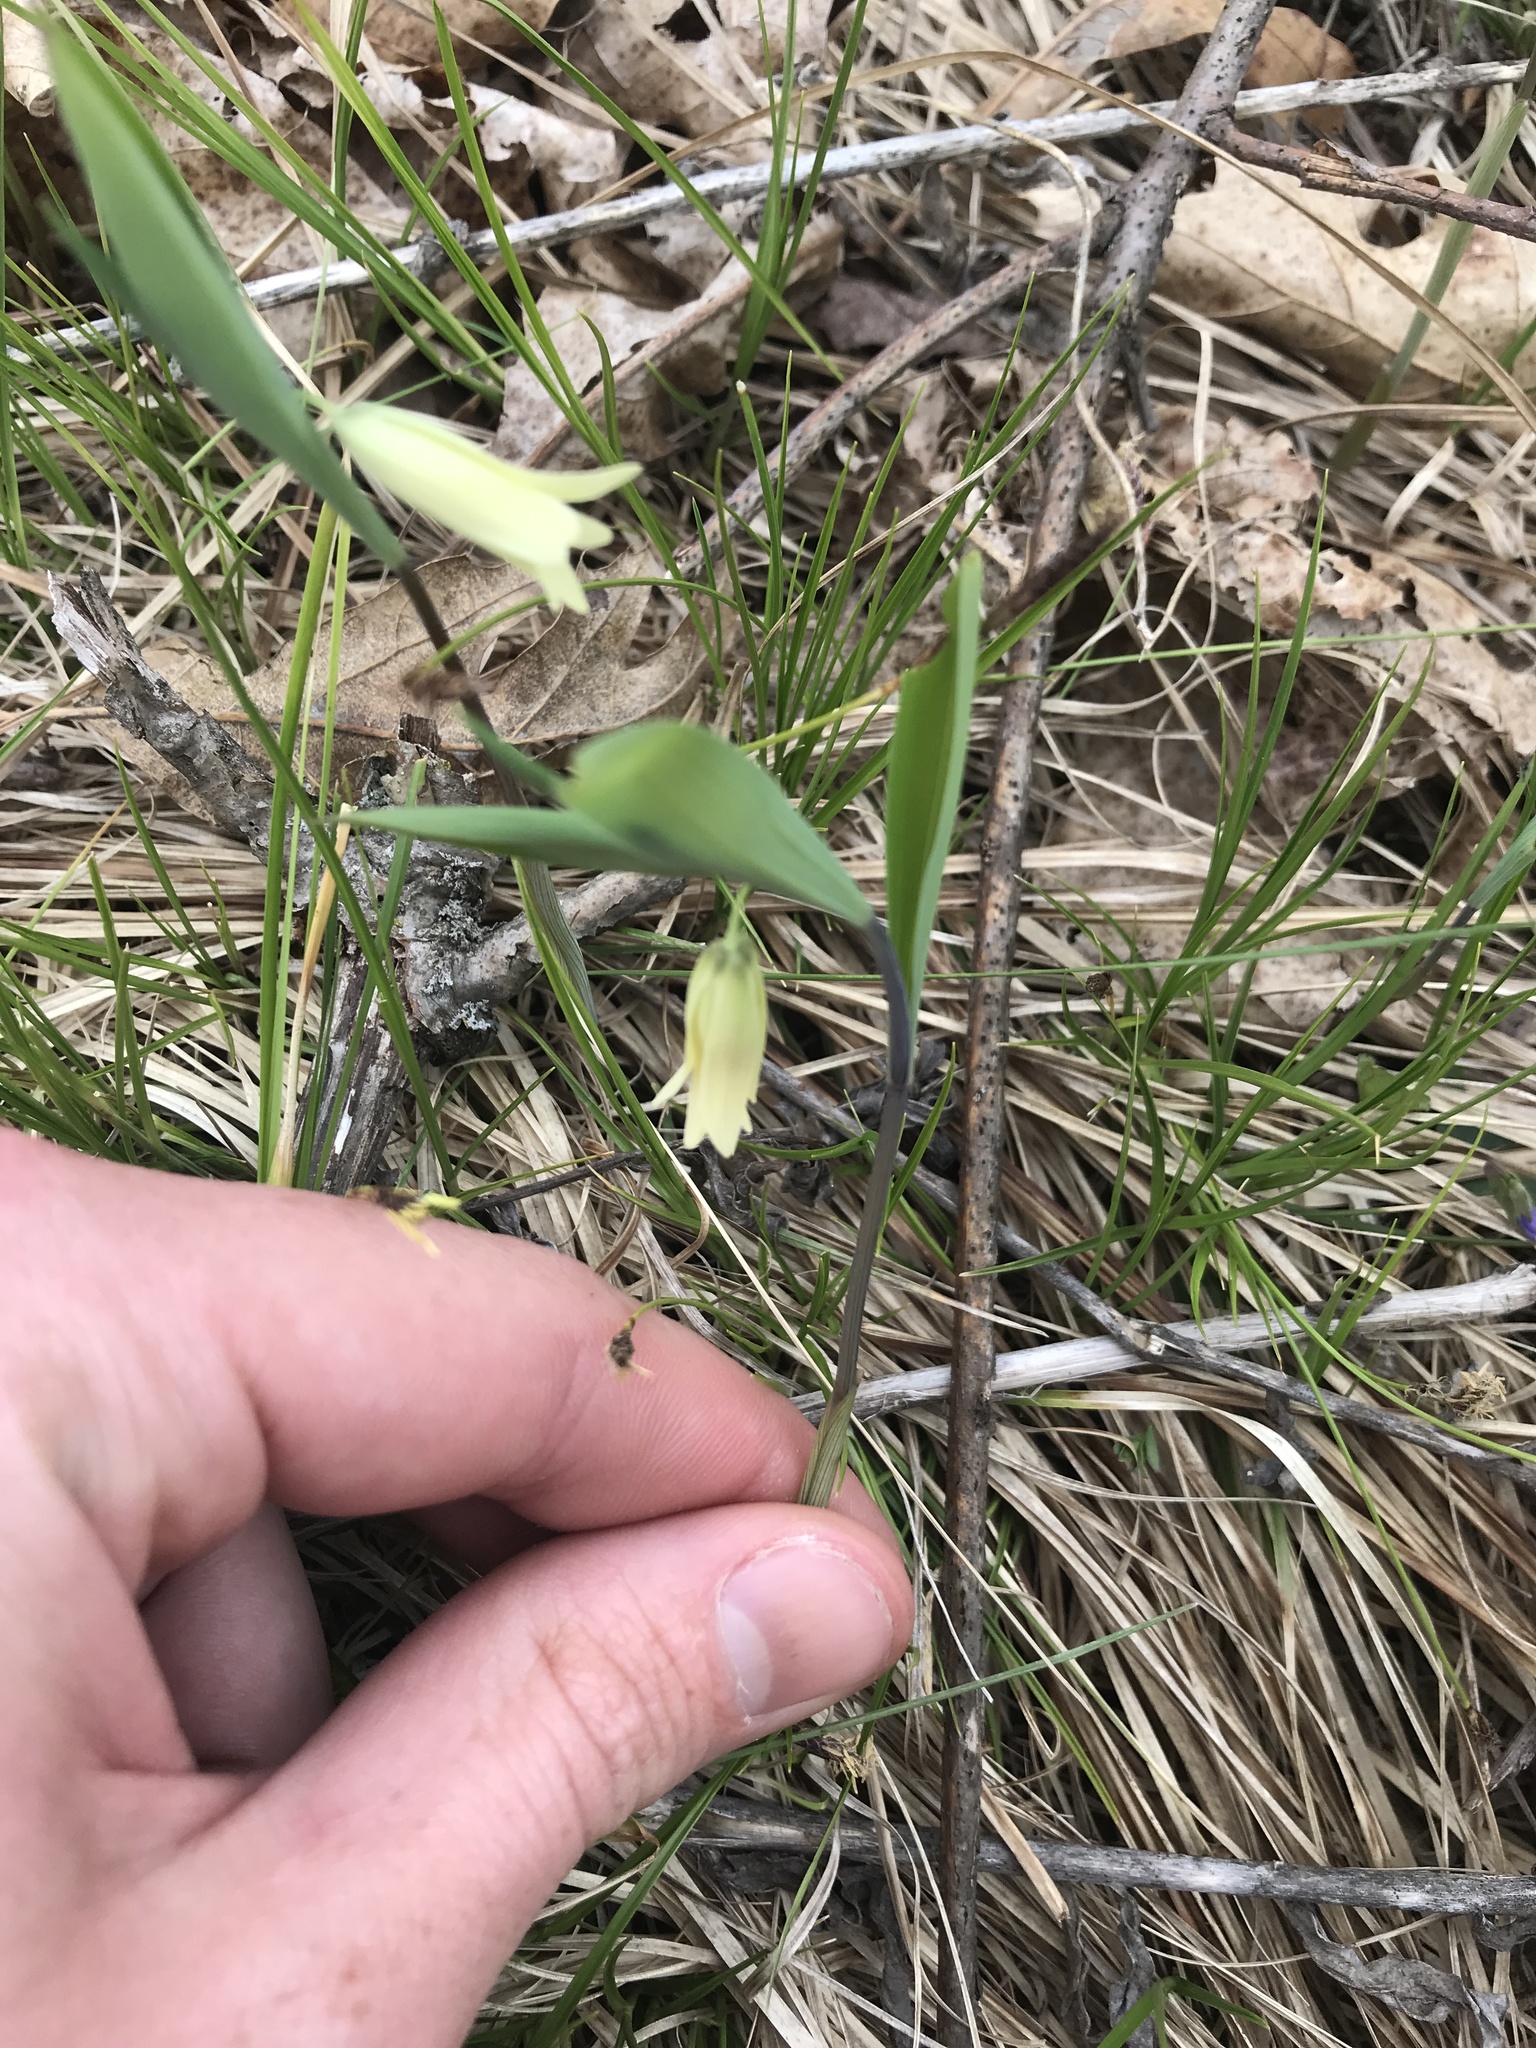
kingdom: Plantae
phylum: Tracheophyta
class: Liliopsida
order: Liliales
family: Colchicaceae
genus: Uvularia
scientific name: Uvularia sessilifolia
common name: Straw-lily
